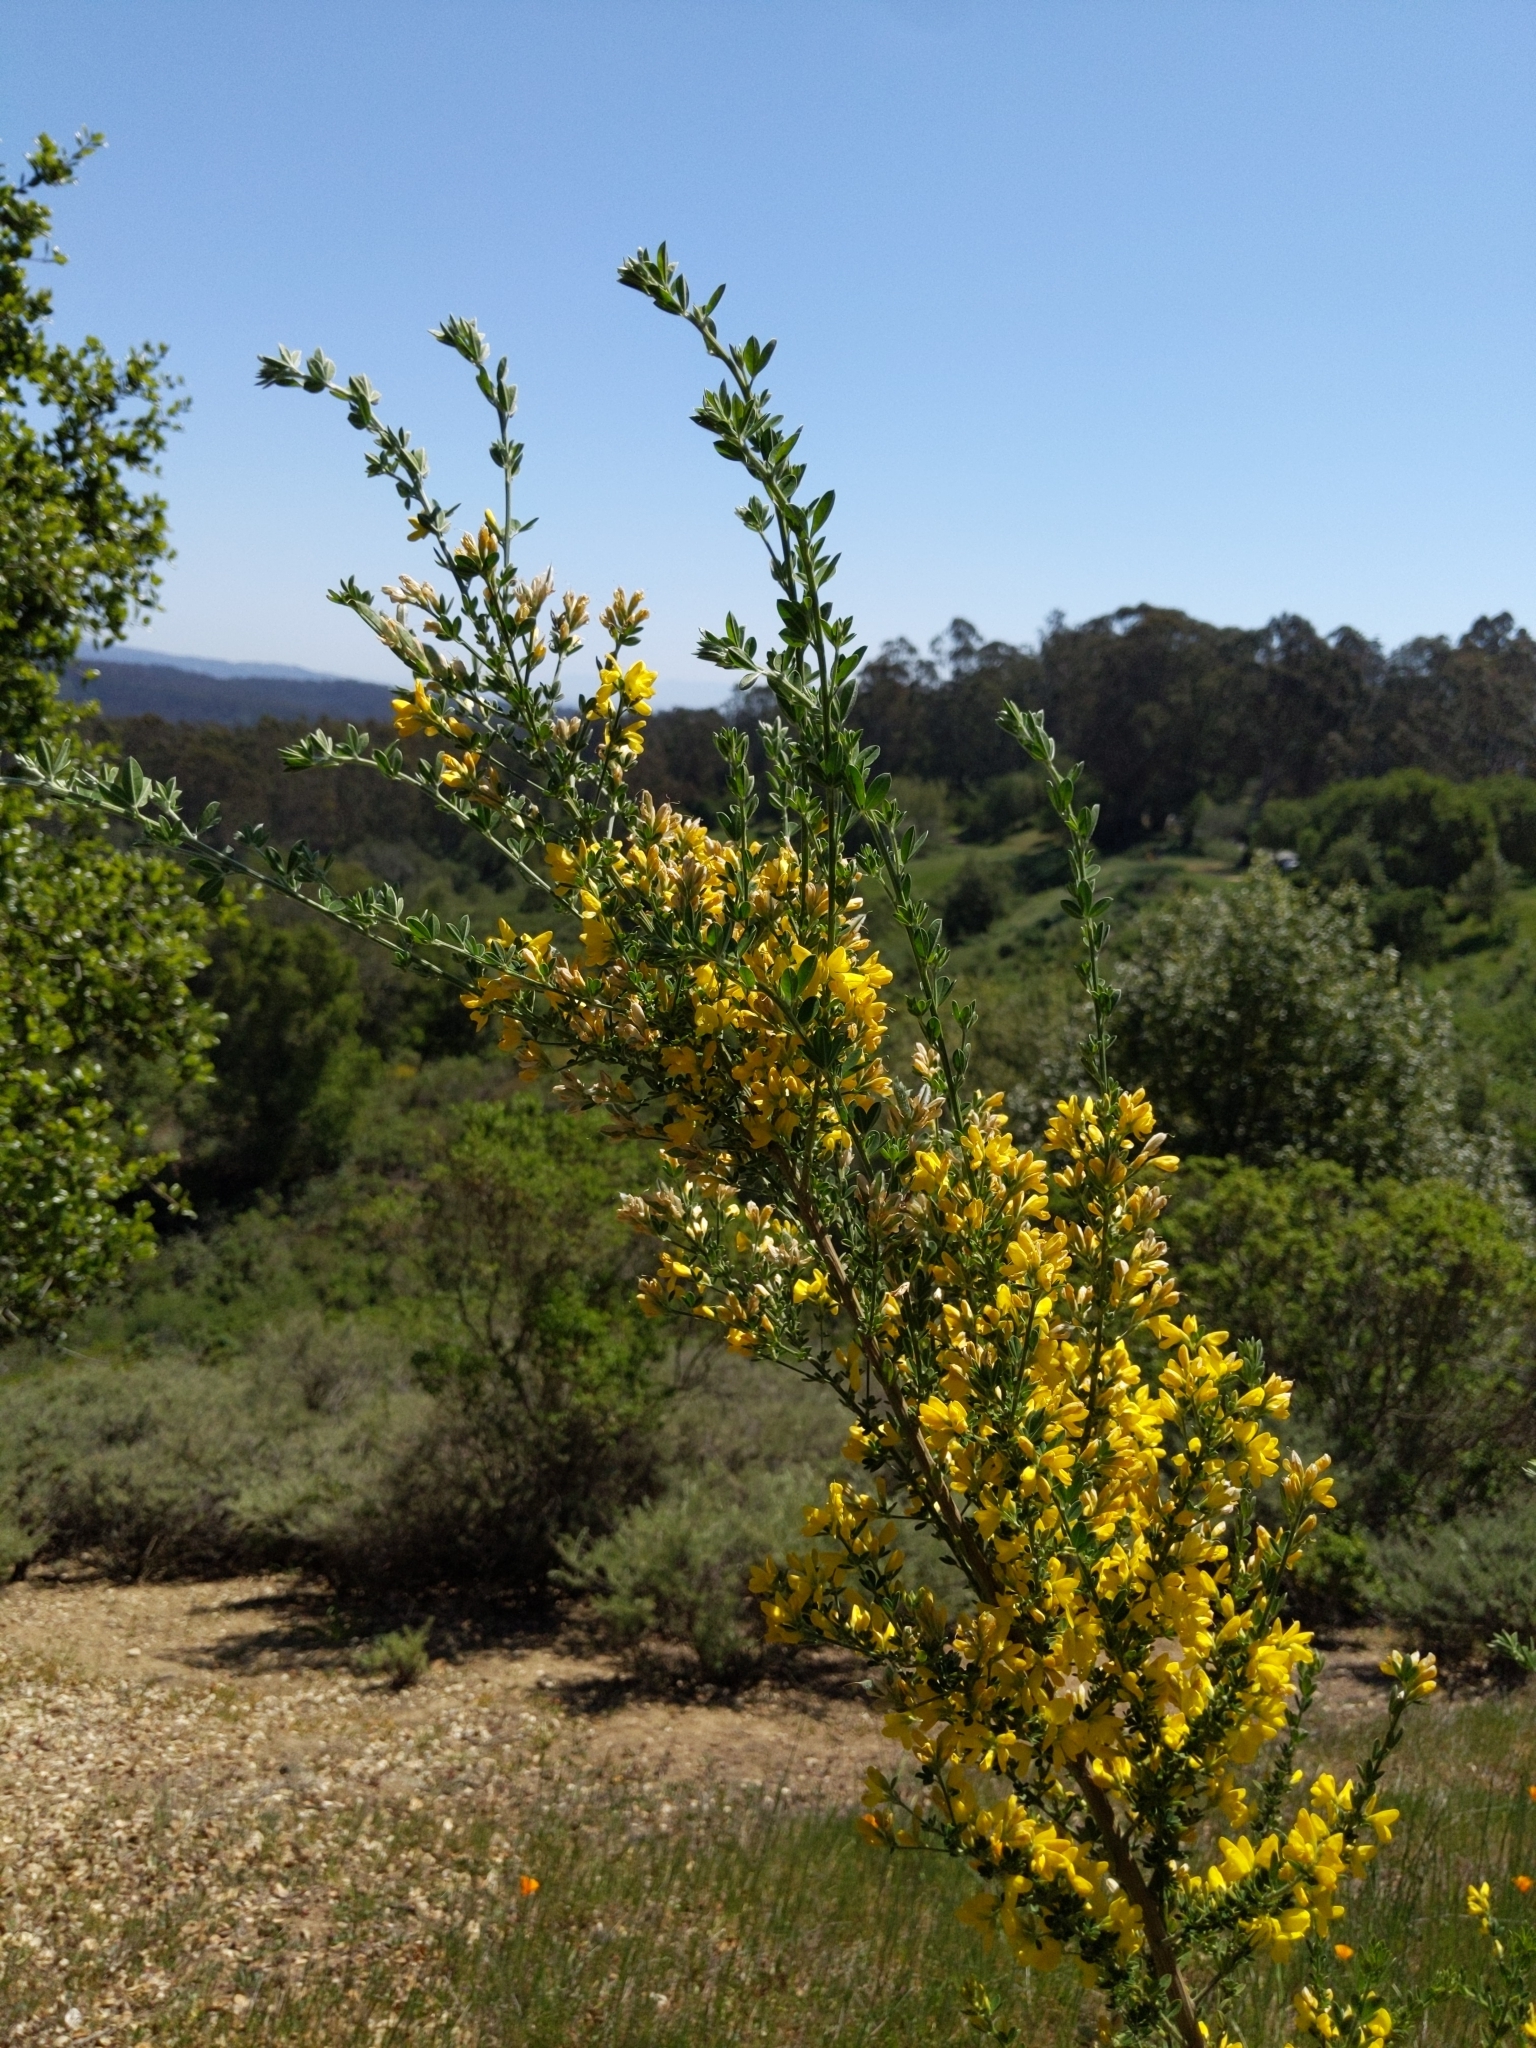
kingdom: Plantae
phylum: Tracheophyta
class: Magnoliopsida
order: Fabales
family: Fabaceae
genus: Genista
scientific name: Genista monspessulana
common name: Montpellier broom
